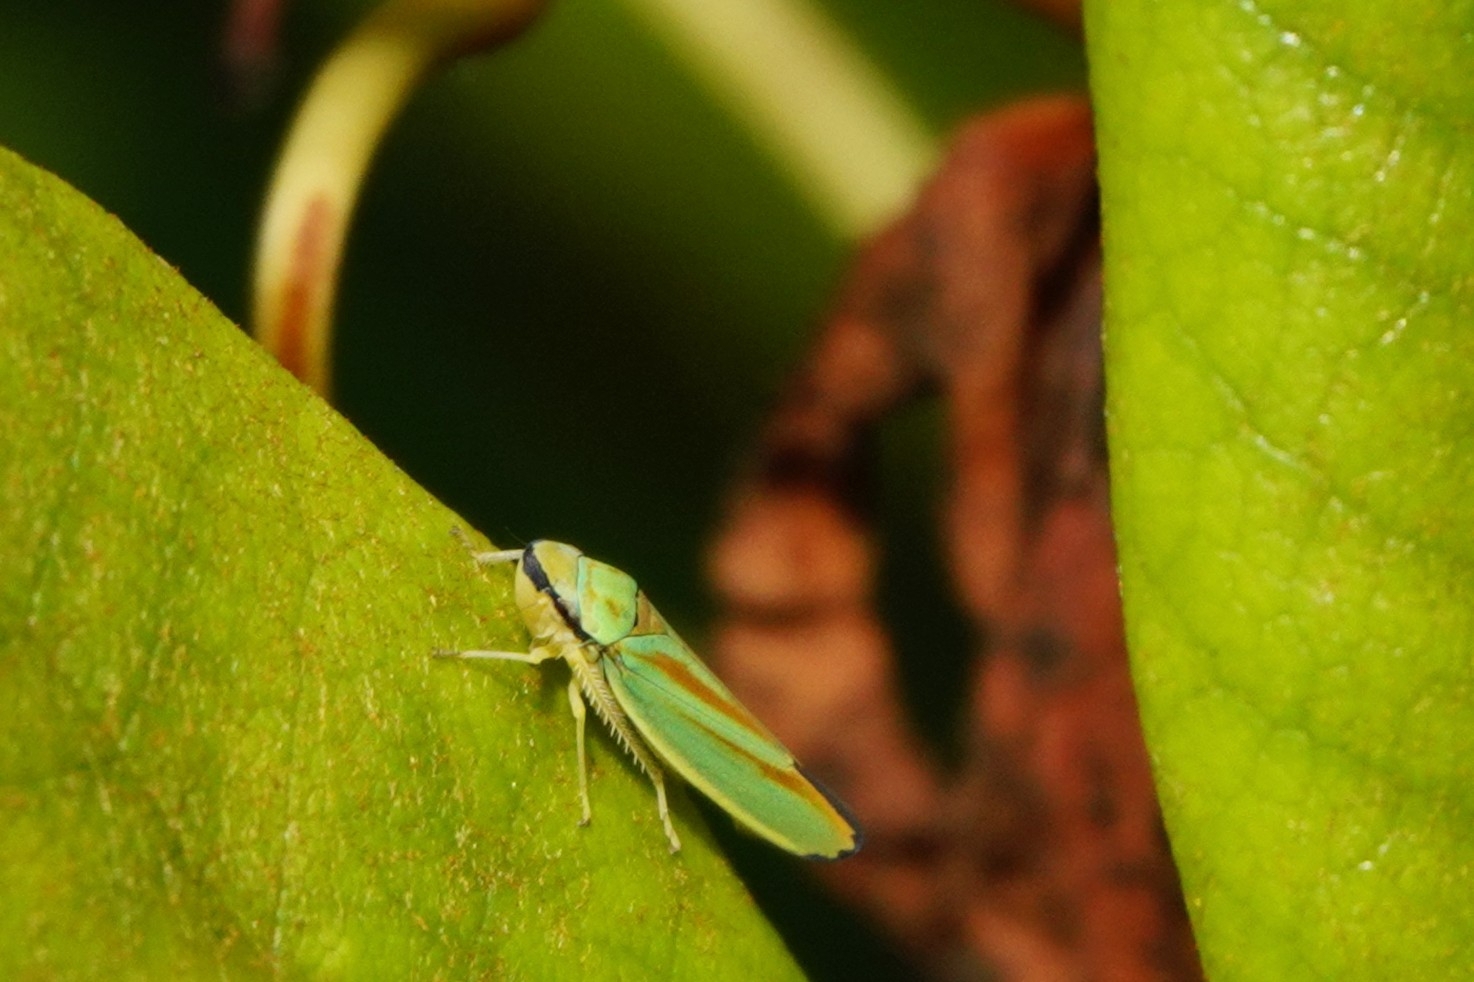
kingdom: Animalia
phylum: Arthropoda
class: Insecta
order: Hemiptera
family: Cicadellidae
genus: Graphocephala
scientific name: Graphocephala fennahi
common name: Rhododendron leafhopper
